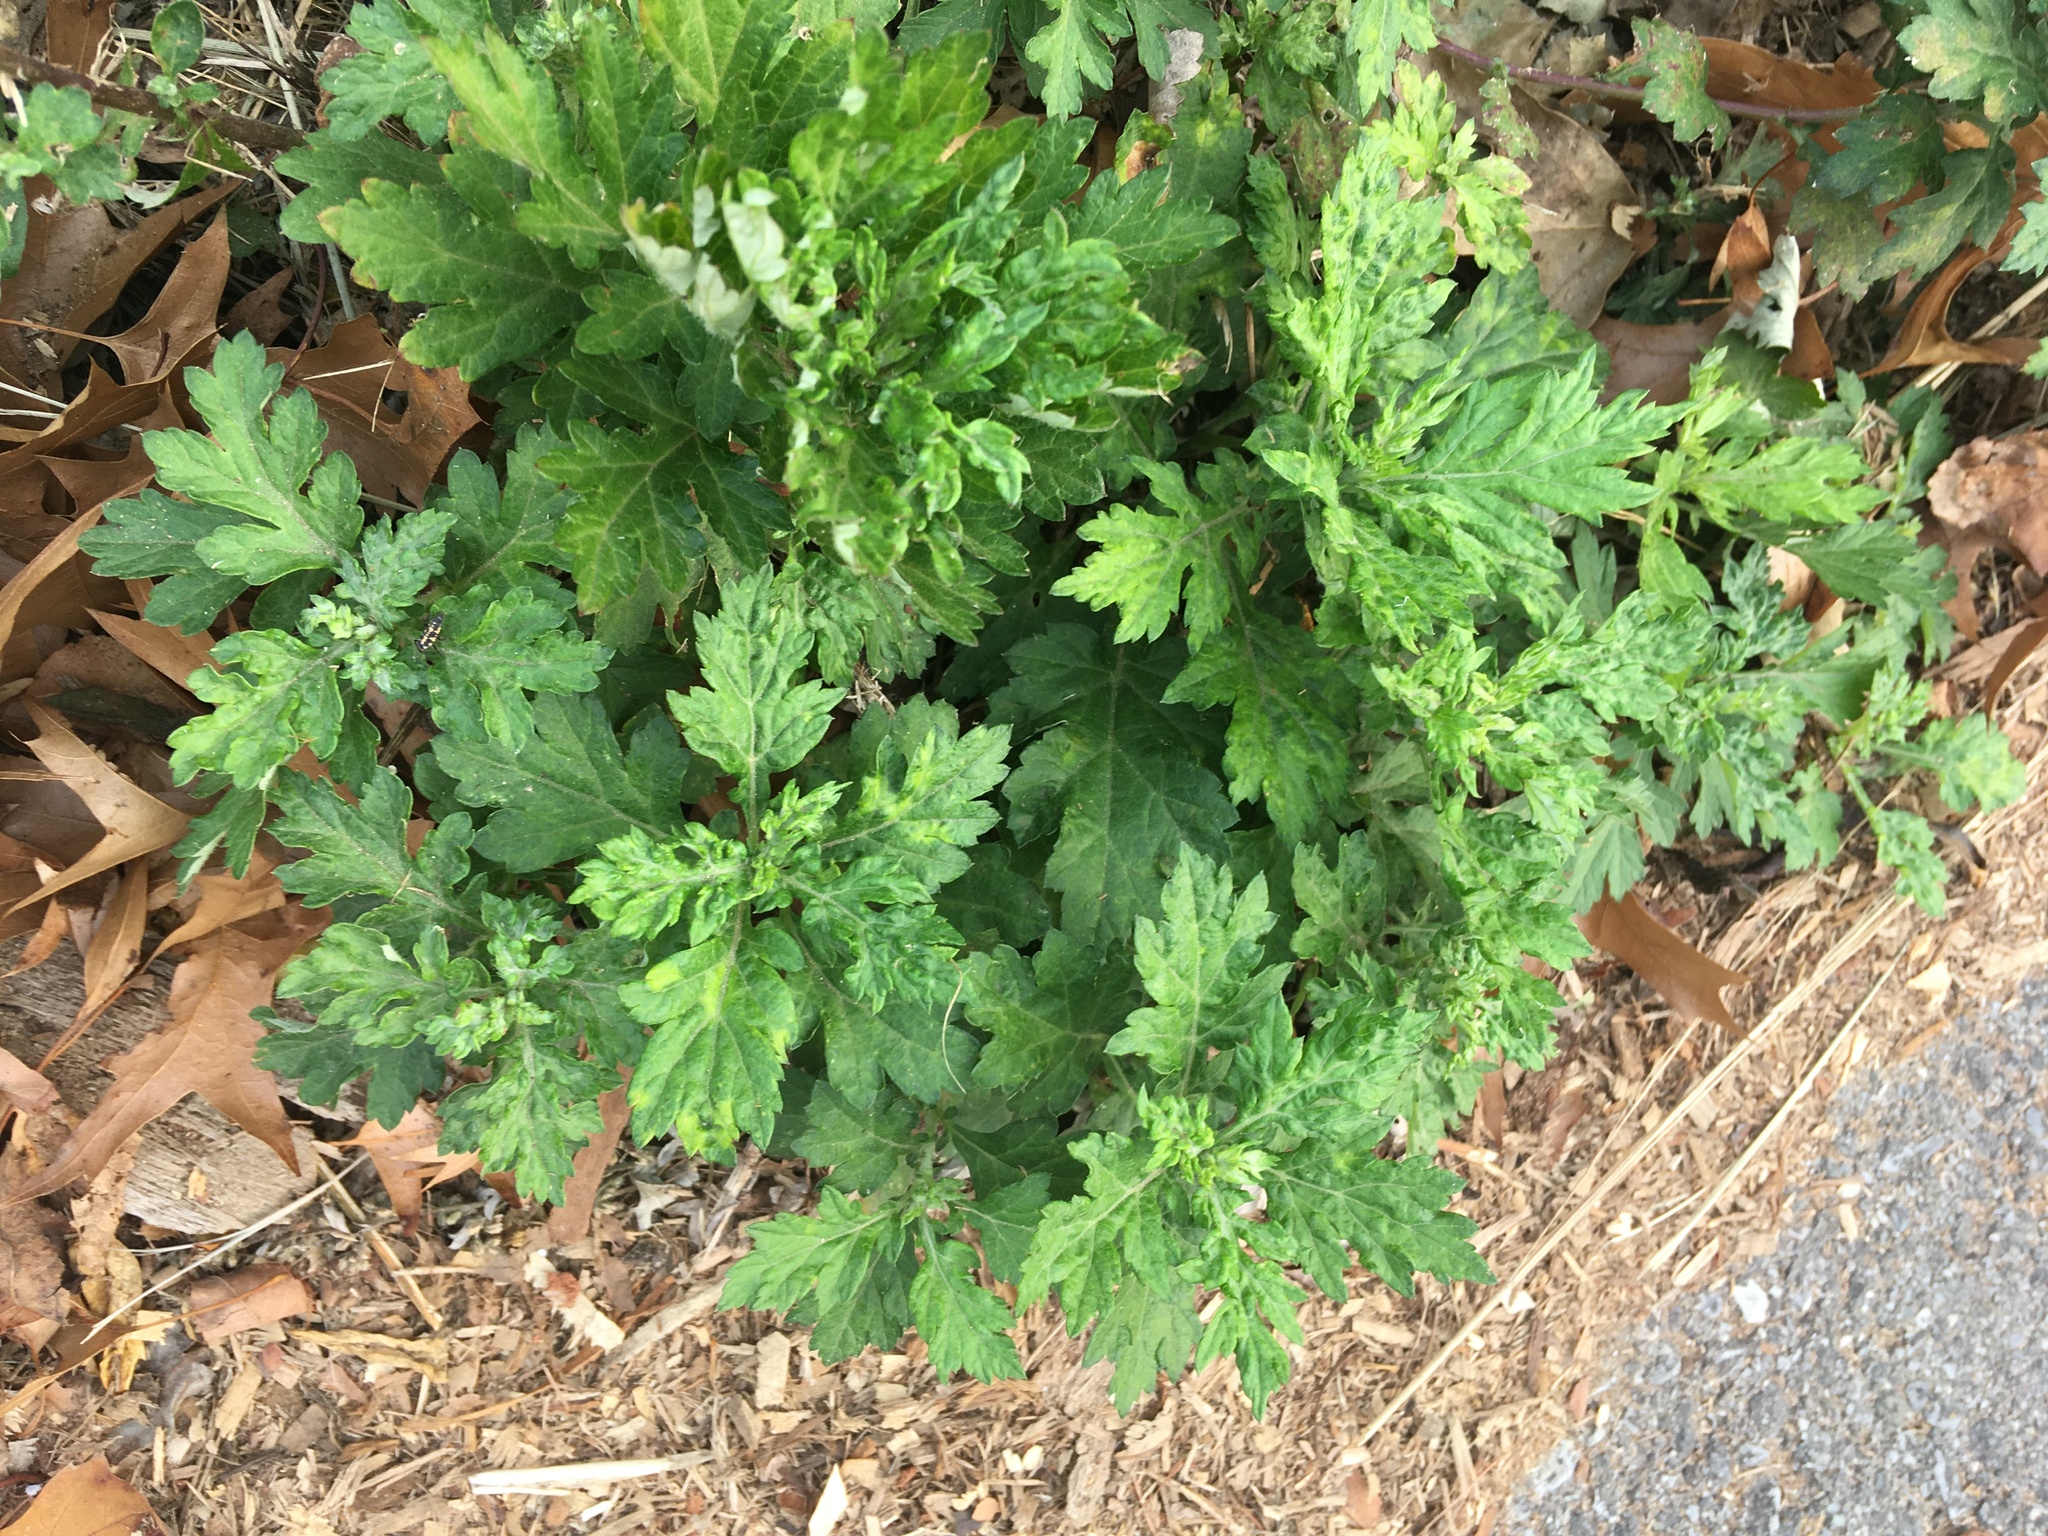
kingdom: Plantae
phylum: Tracheophyta
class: Magnoliopsida
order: Asterales
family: Asteraceae
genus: Artemisia
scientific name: Artemisia vulgaris
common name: Mugwort
